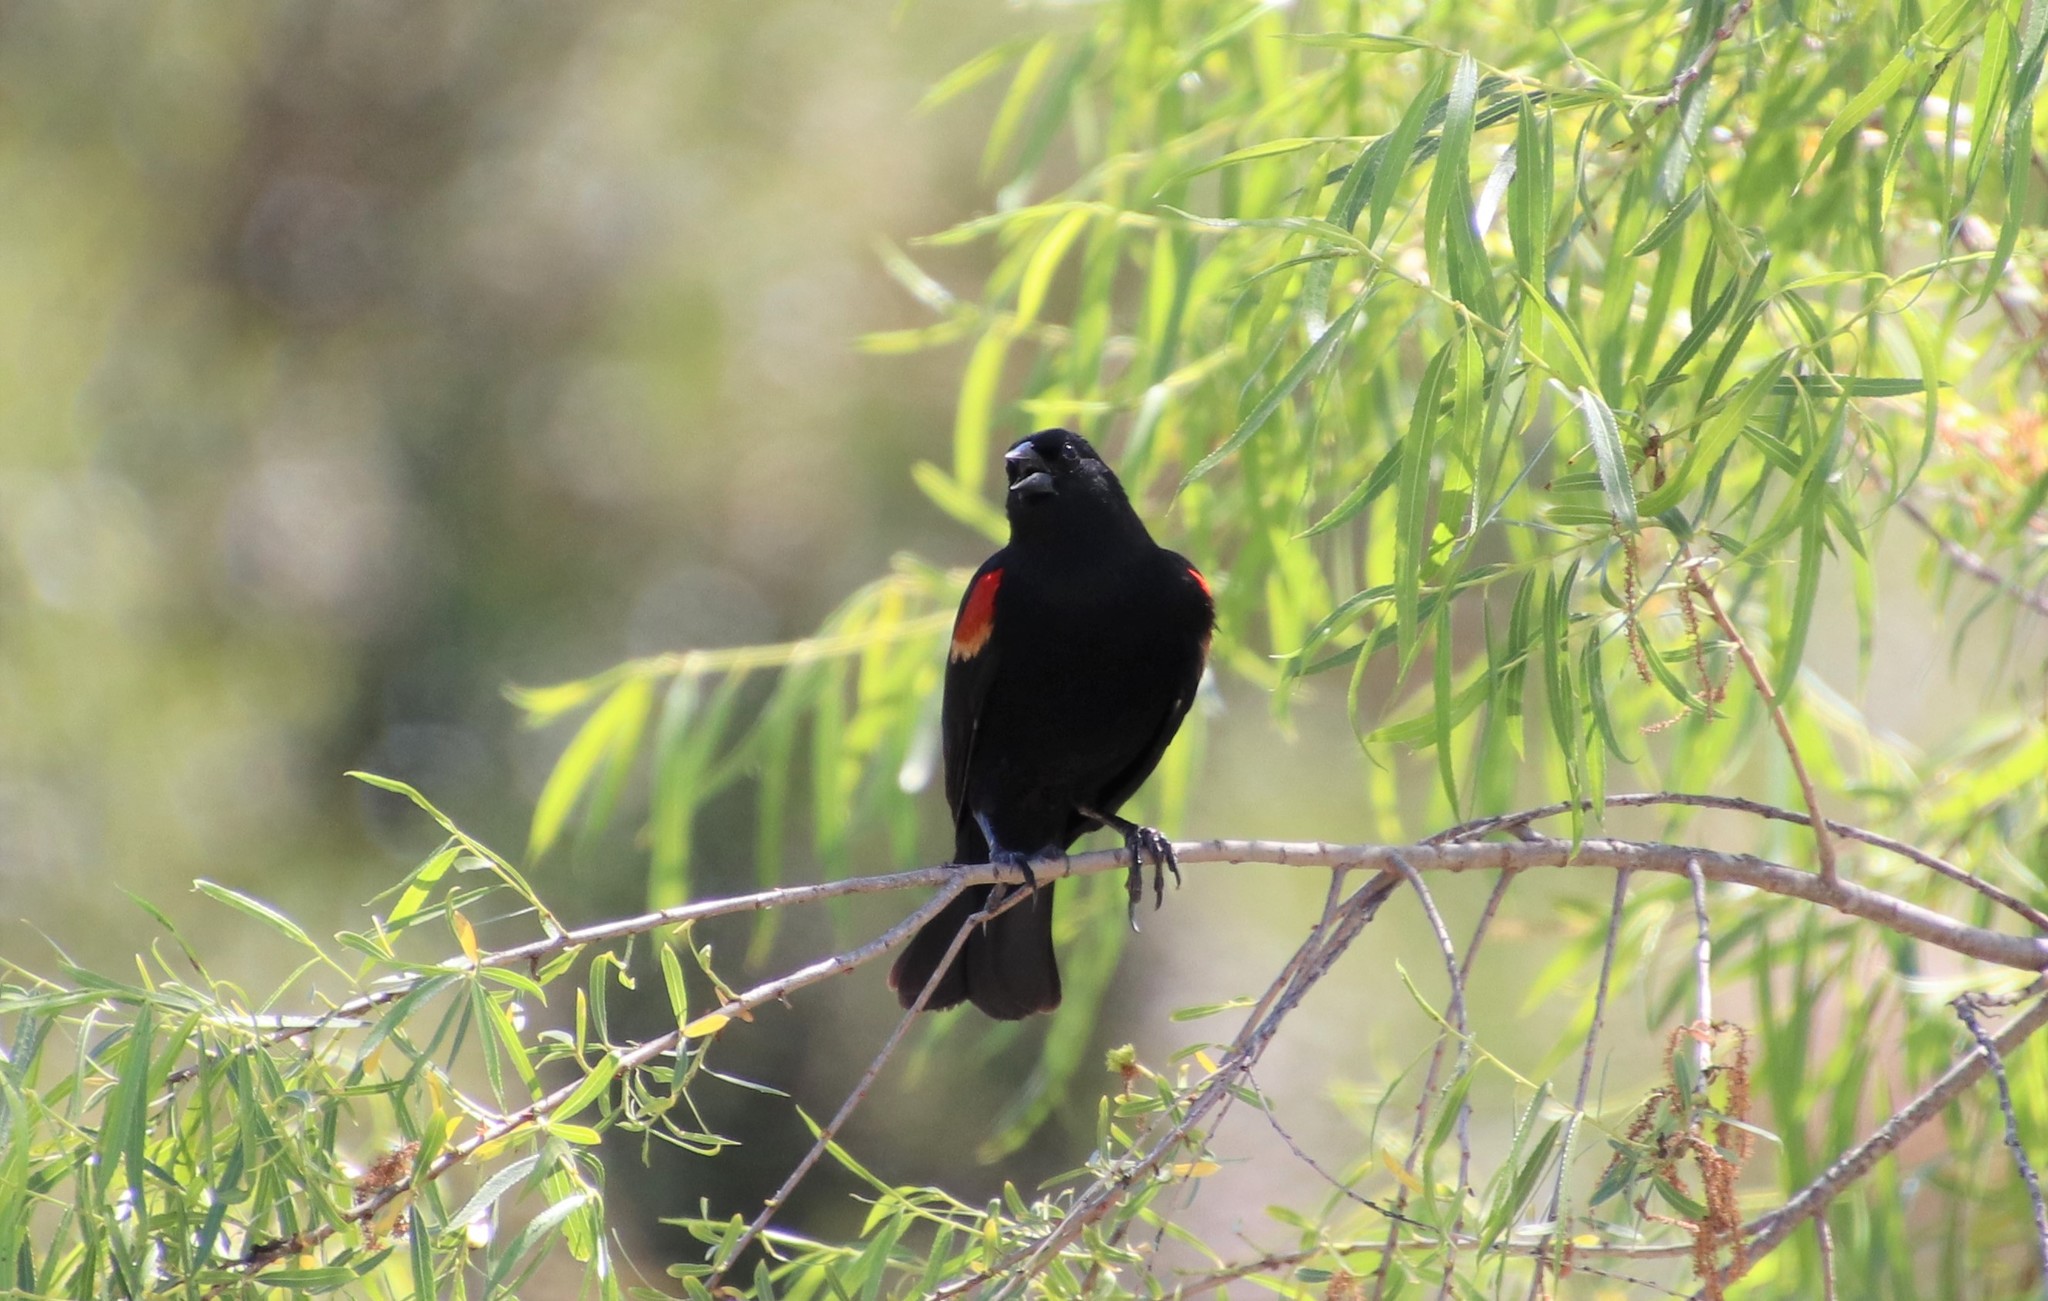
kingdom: Animalia
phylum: Chordata
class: Aves
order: Passeriformes
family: Icteridae
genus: Agelaius
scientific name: Agelaius phoeniceus
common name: Red-winged blackbird
